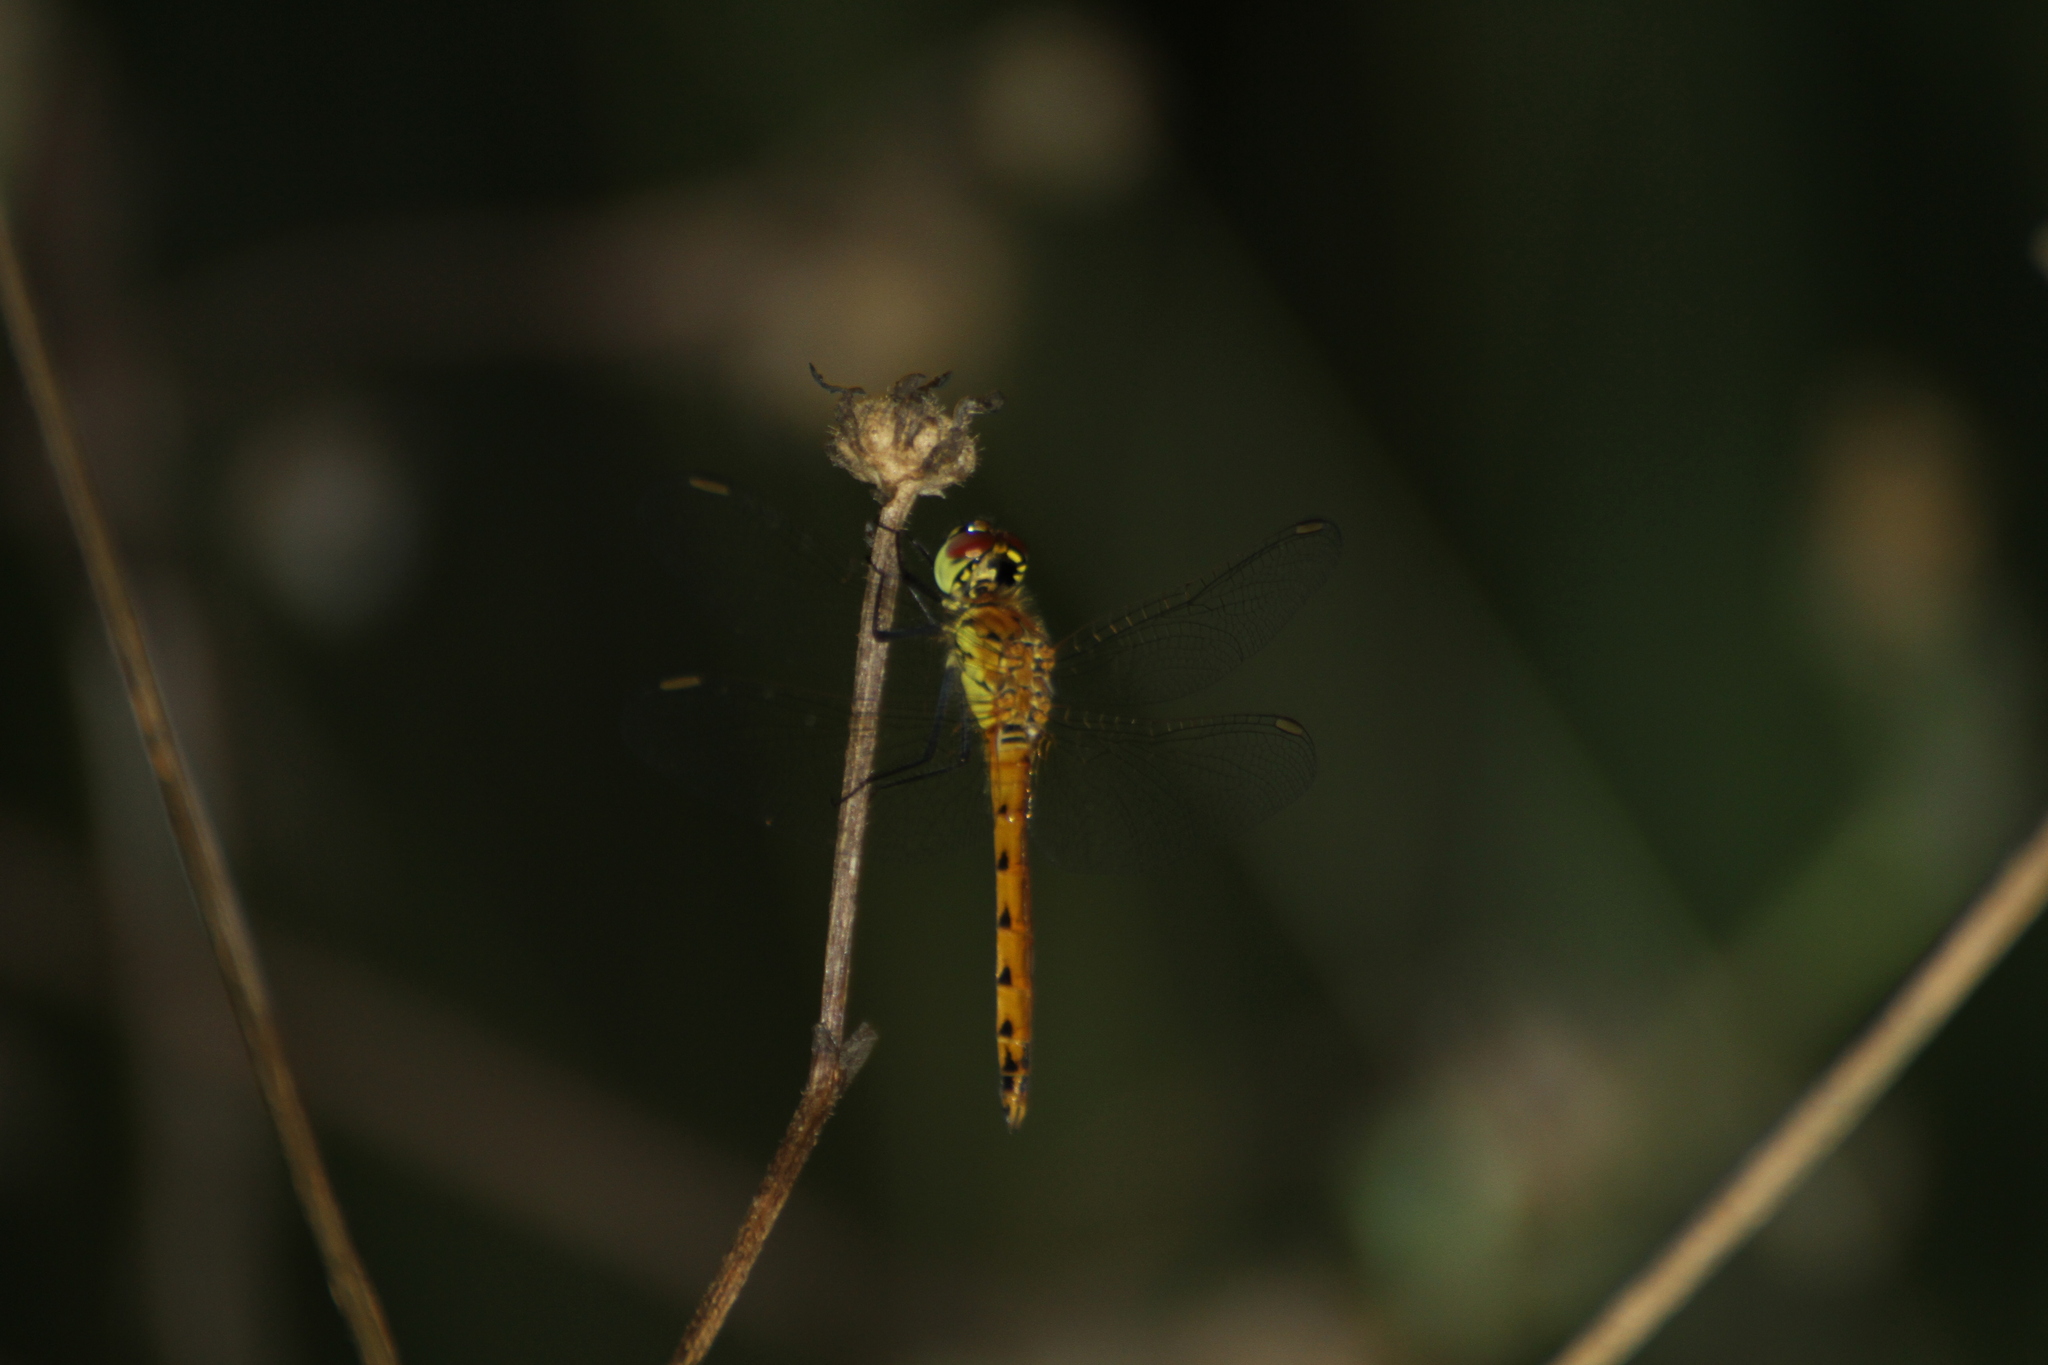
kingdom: Animalia
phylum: Arthropoda
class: Insecta
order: Odonata
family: Libellulidae
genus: Sympetrum
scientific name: Sympetrum depressiusculum
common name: Spotted darter
